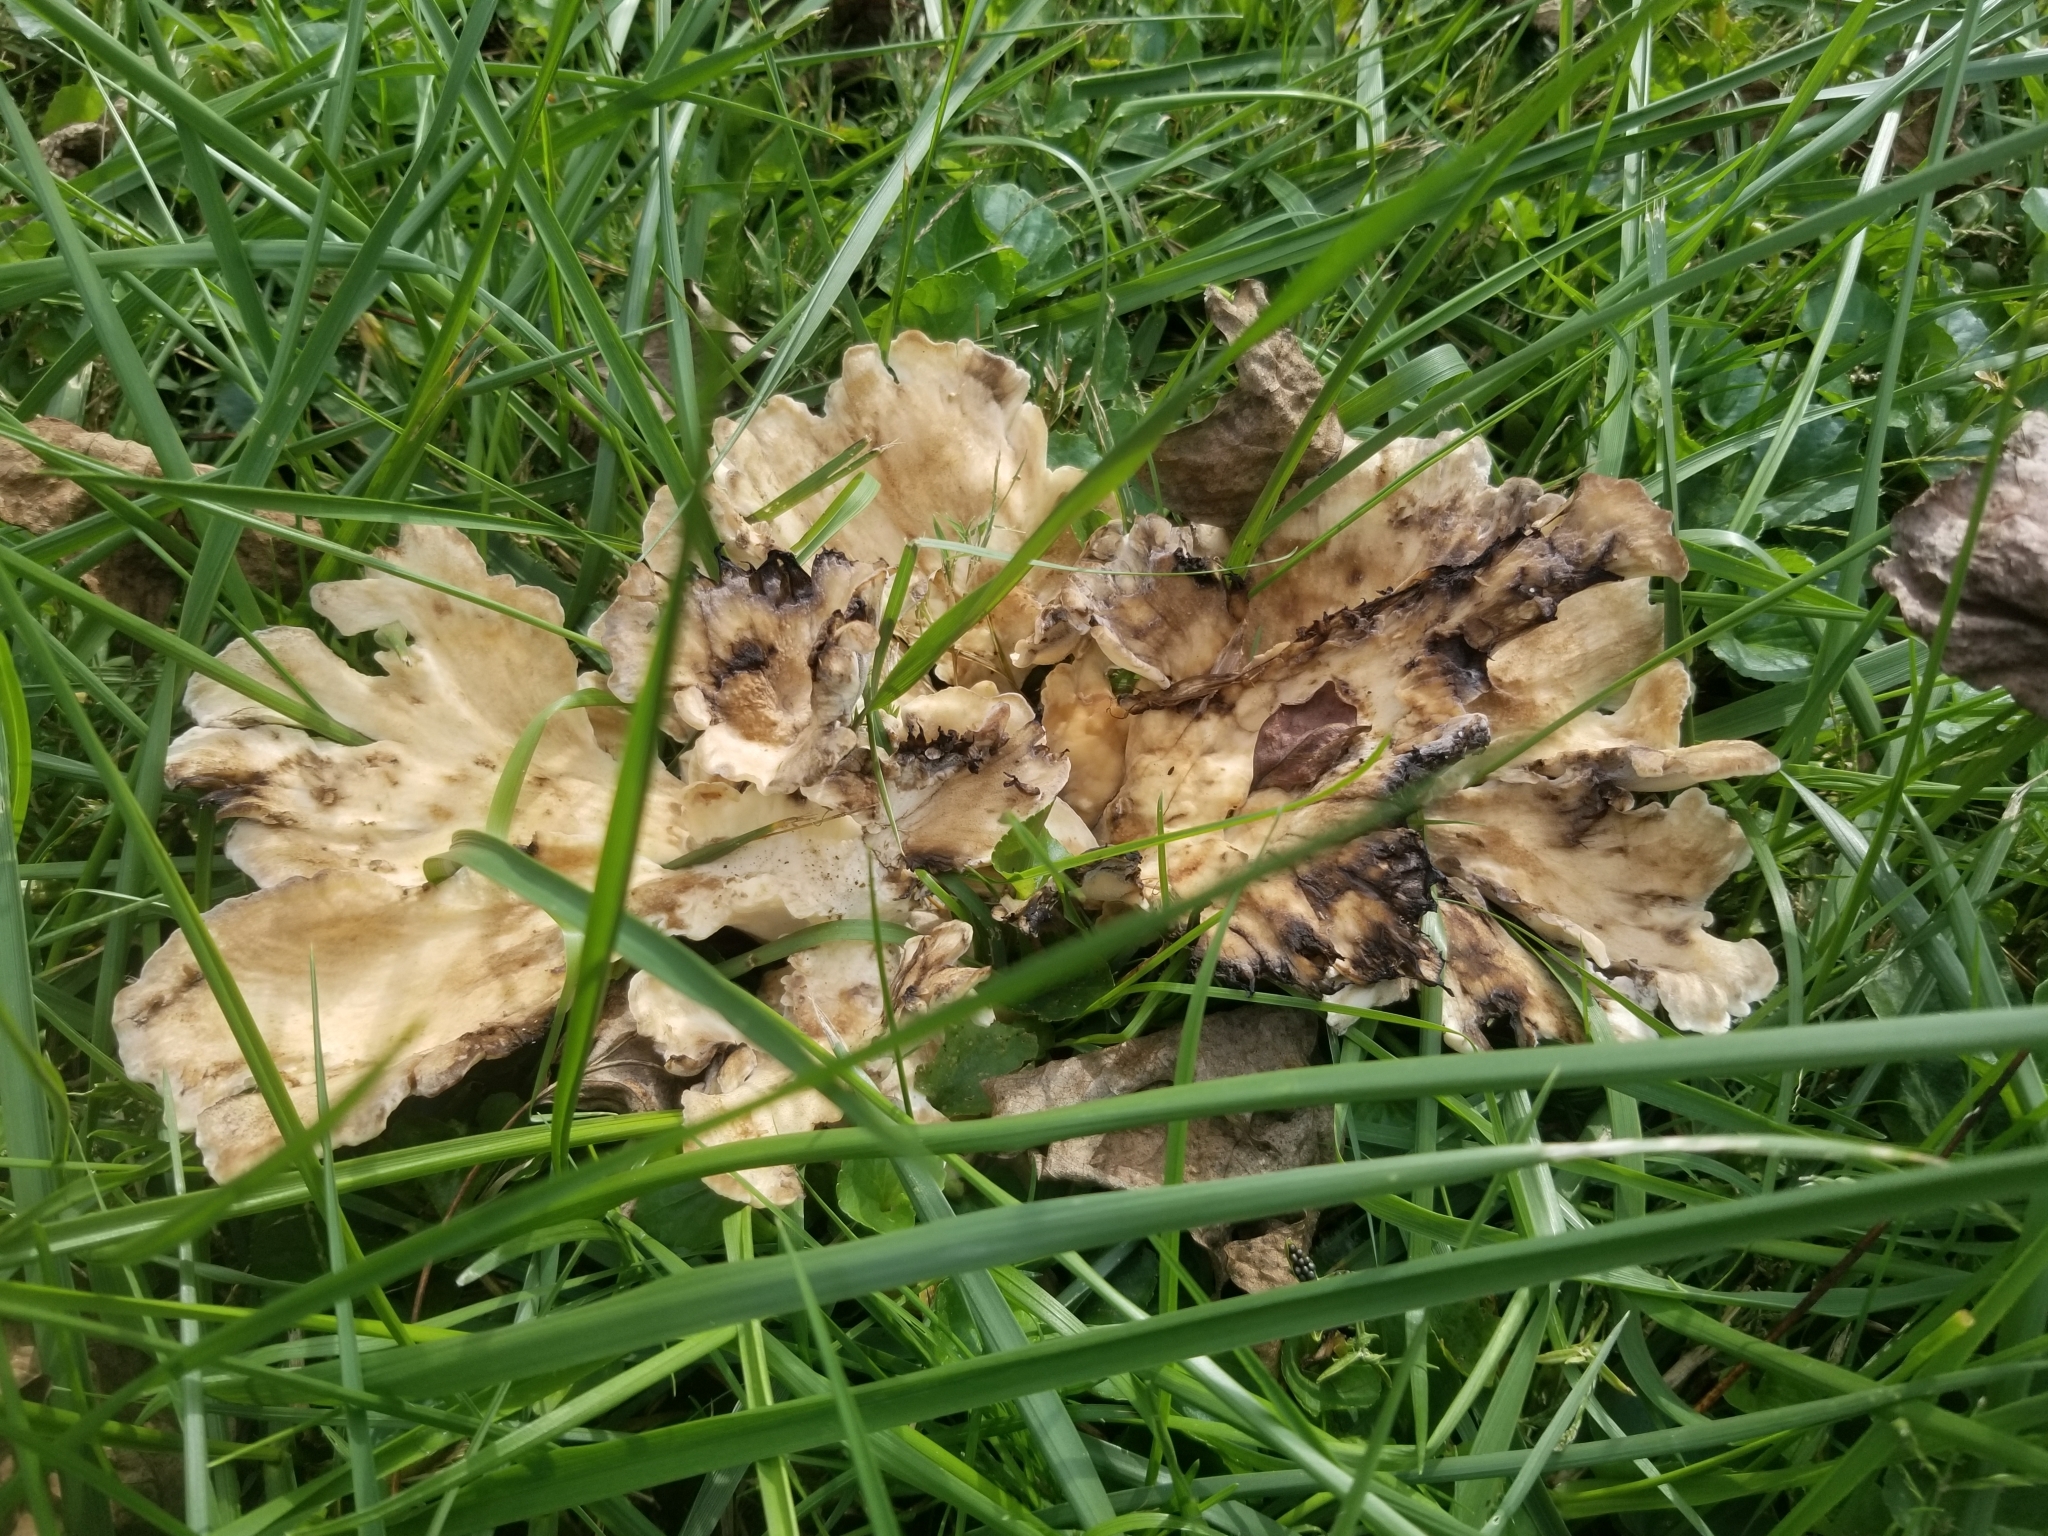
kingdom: Fungi
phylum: Basidiomycota
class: Agaricomycetes
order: Polyporales
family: Meripilaceae
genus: Meripilus
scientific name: Meripilus sumstinei
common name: Black-staining polypore
